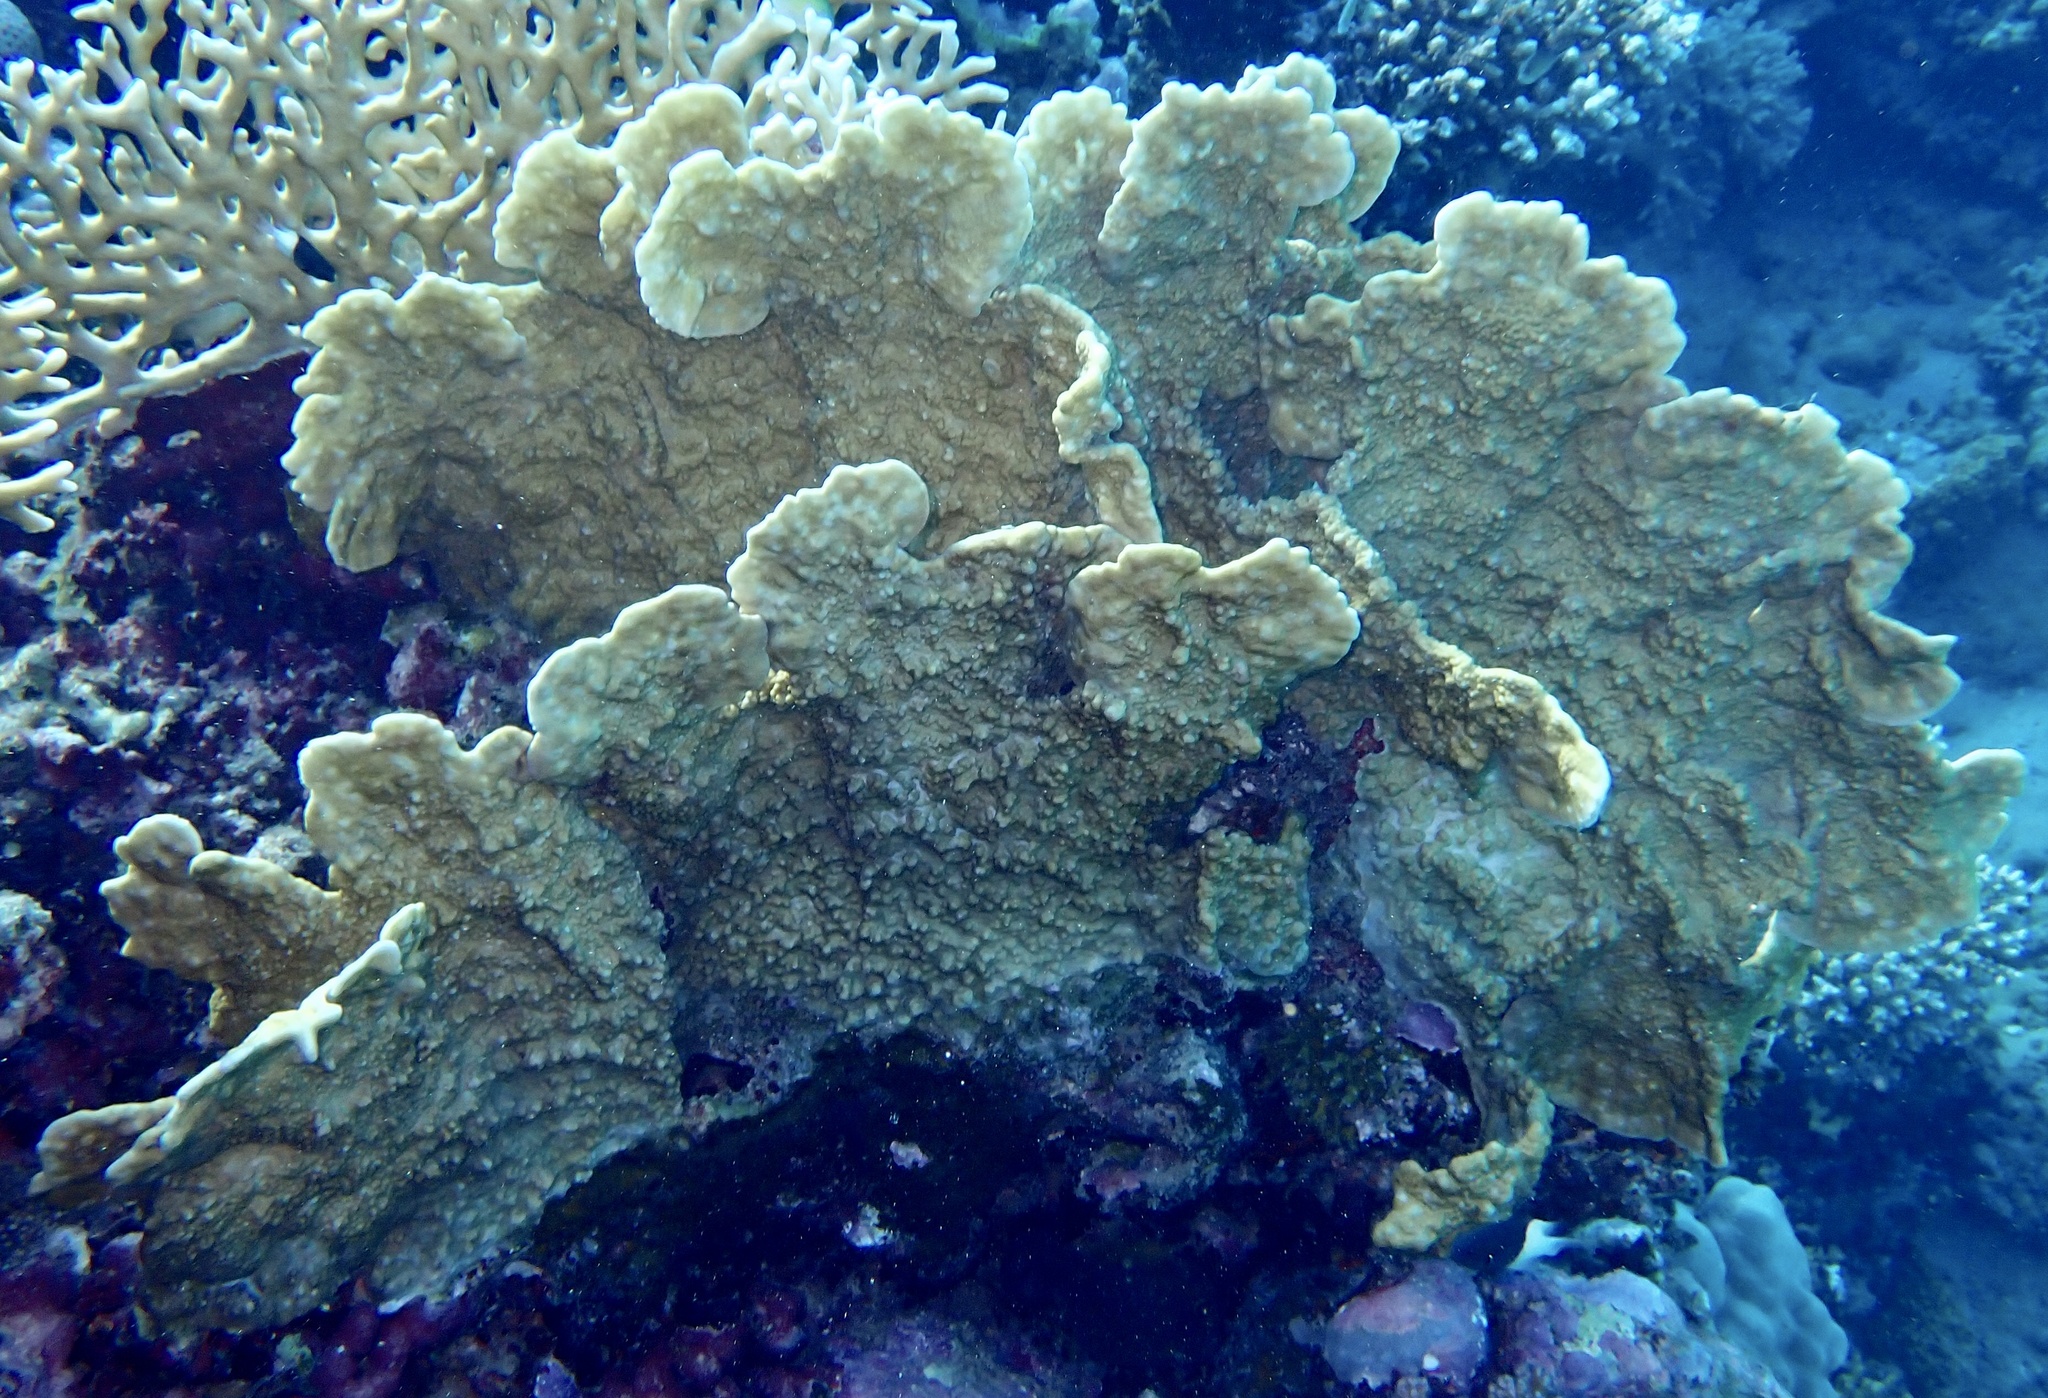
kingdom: Animalia
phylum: Cnidaria
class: Hydrozoa
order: Anthoathecata
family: Milleporidae
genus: Millepora
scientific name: Millepora platyphylla
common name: Sheet fire coral
